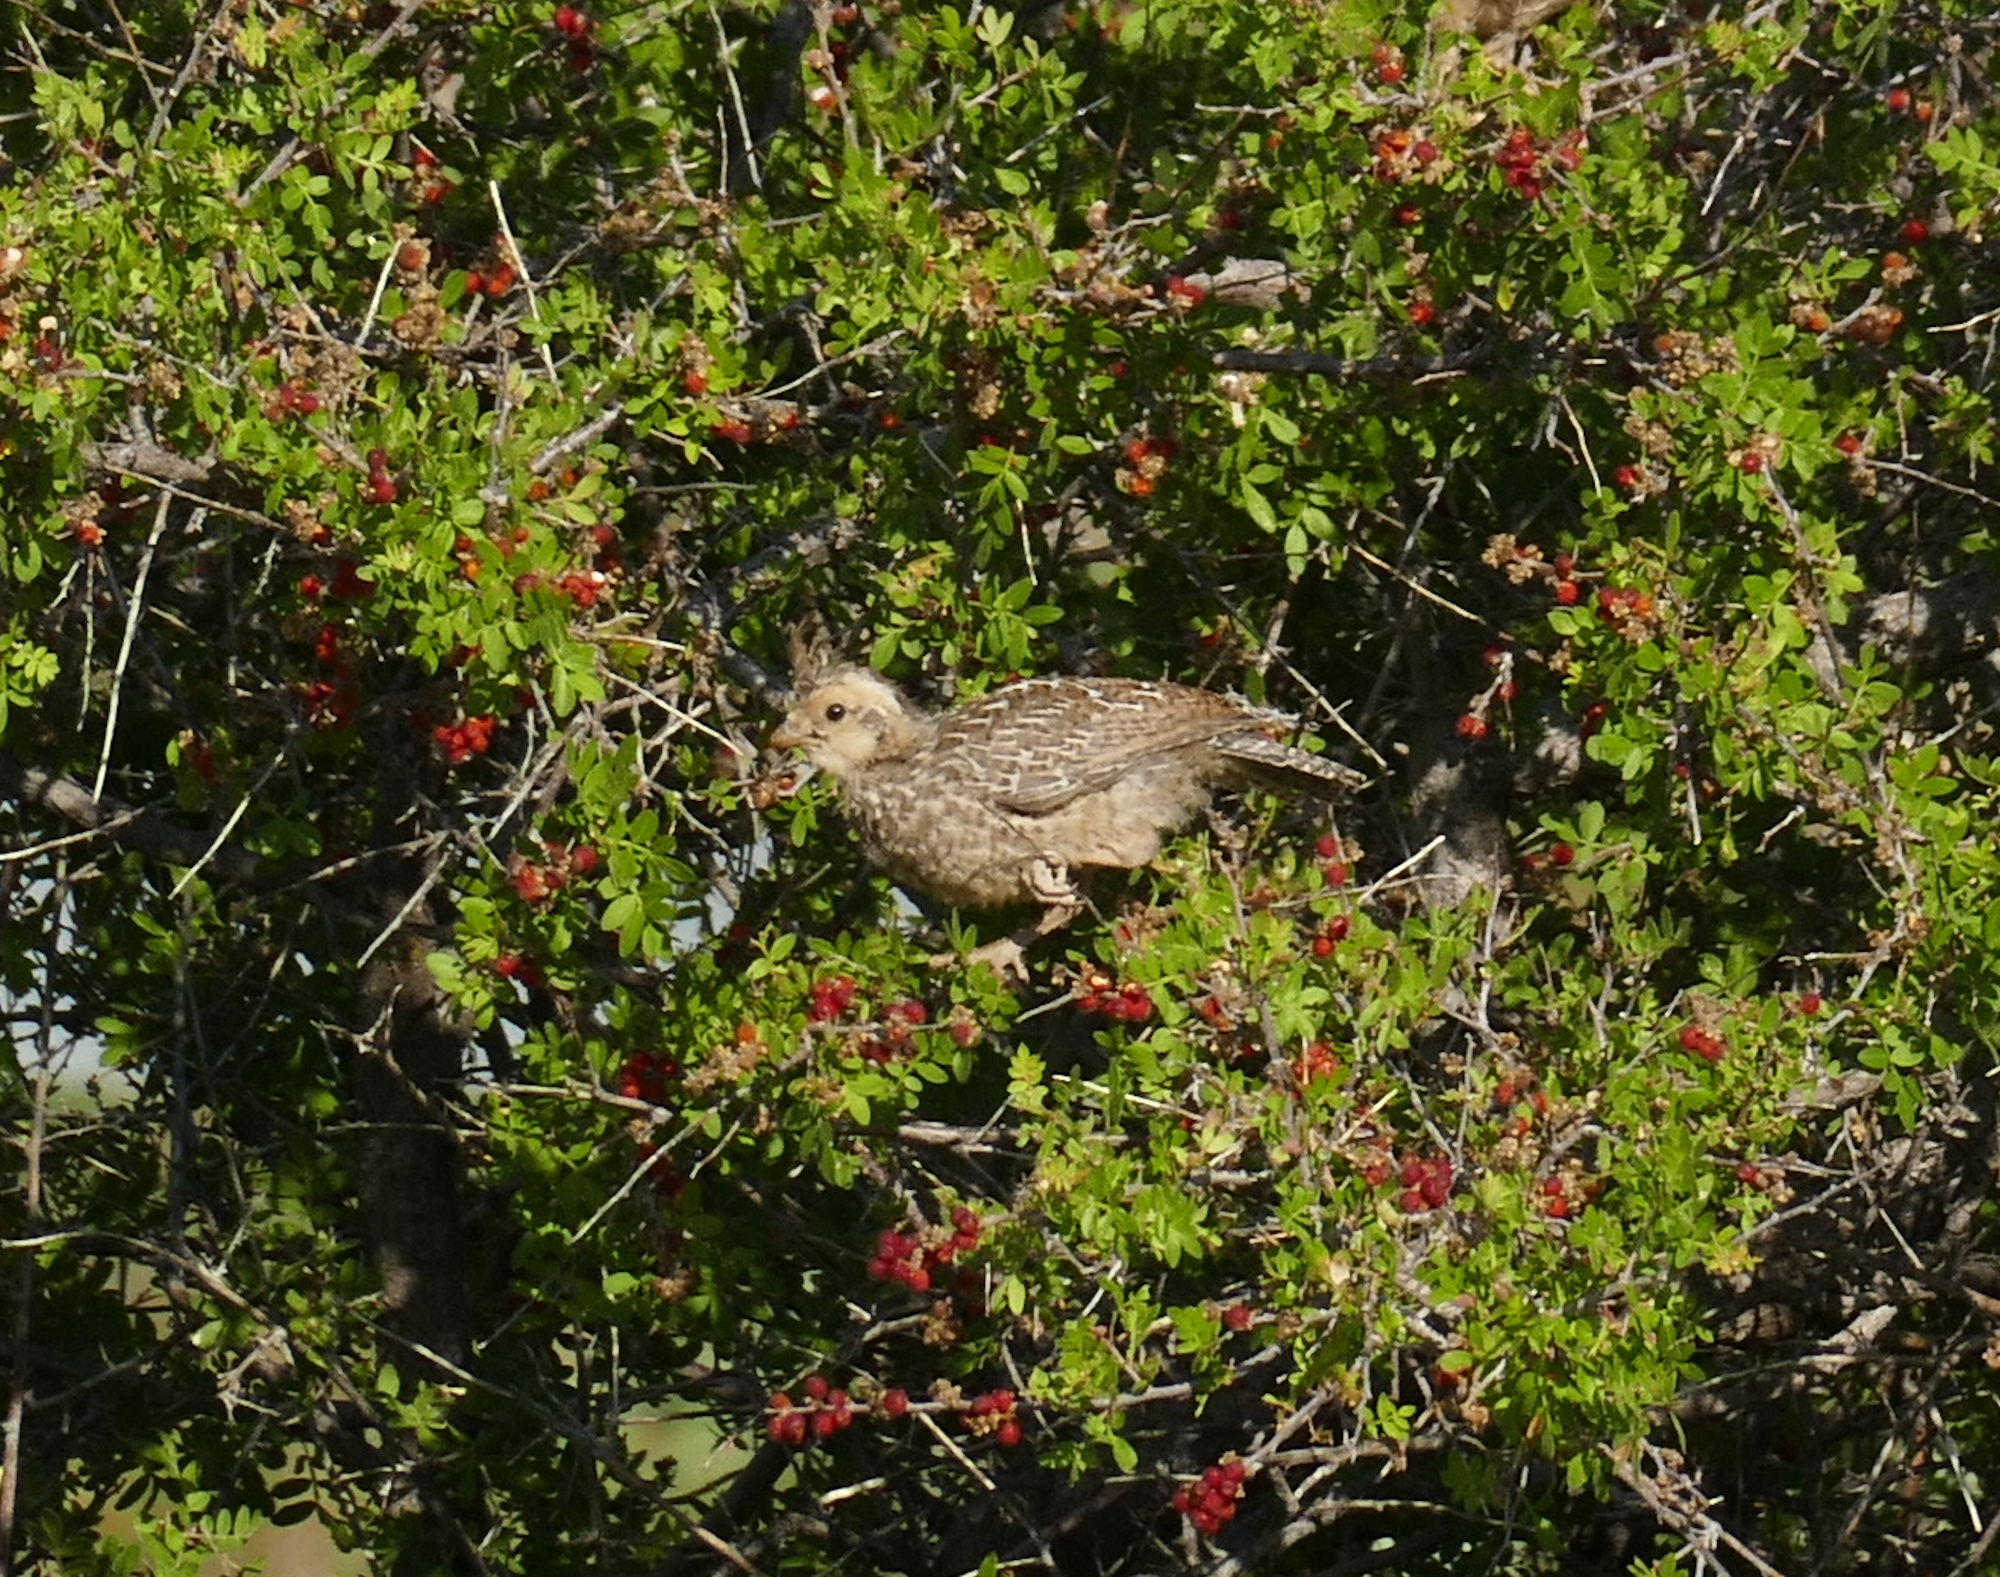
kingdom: Animalia
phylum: Chordata
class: Aves
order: Galliformes
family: Odontophoridae
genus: Callipepla
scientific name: Callipepla squamata
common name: Scaled quail
